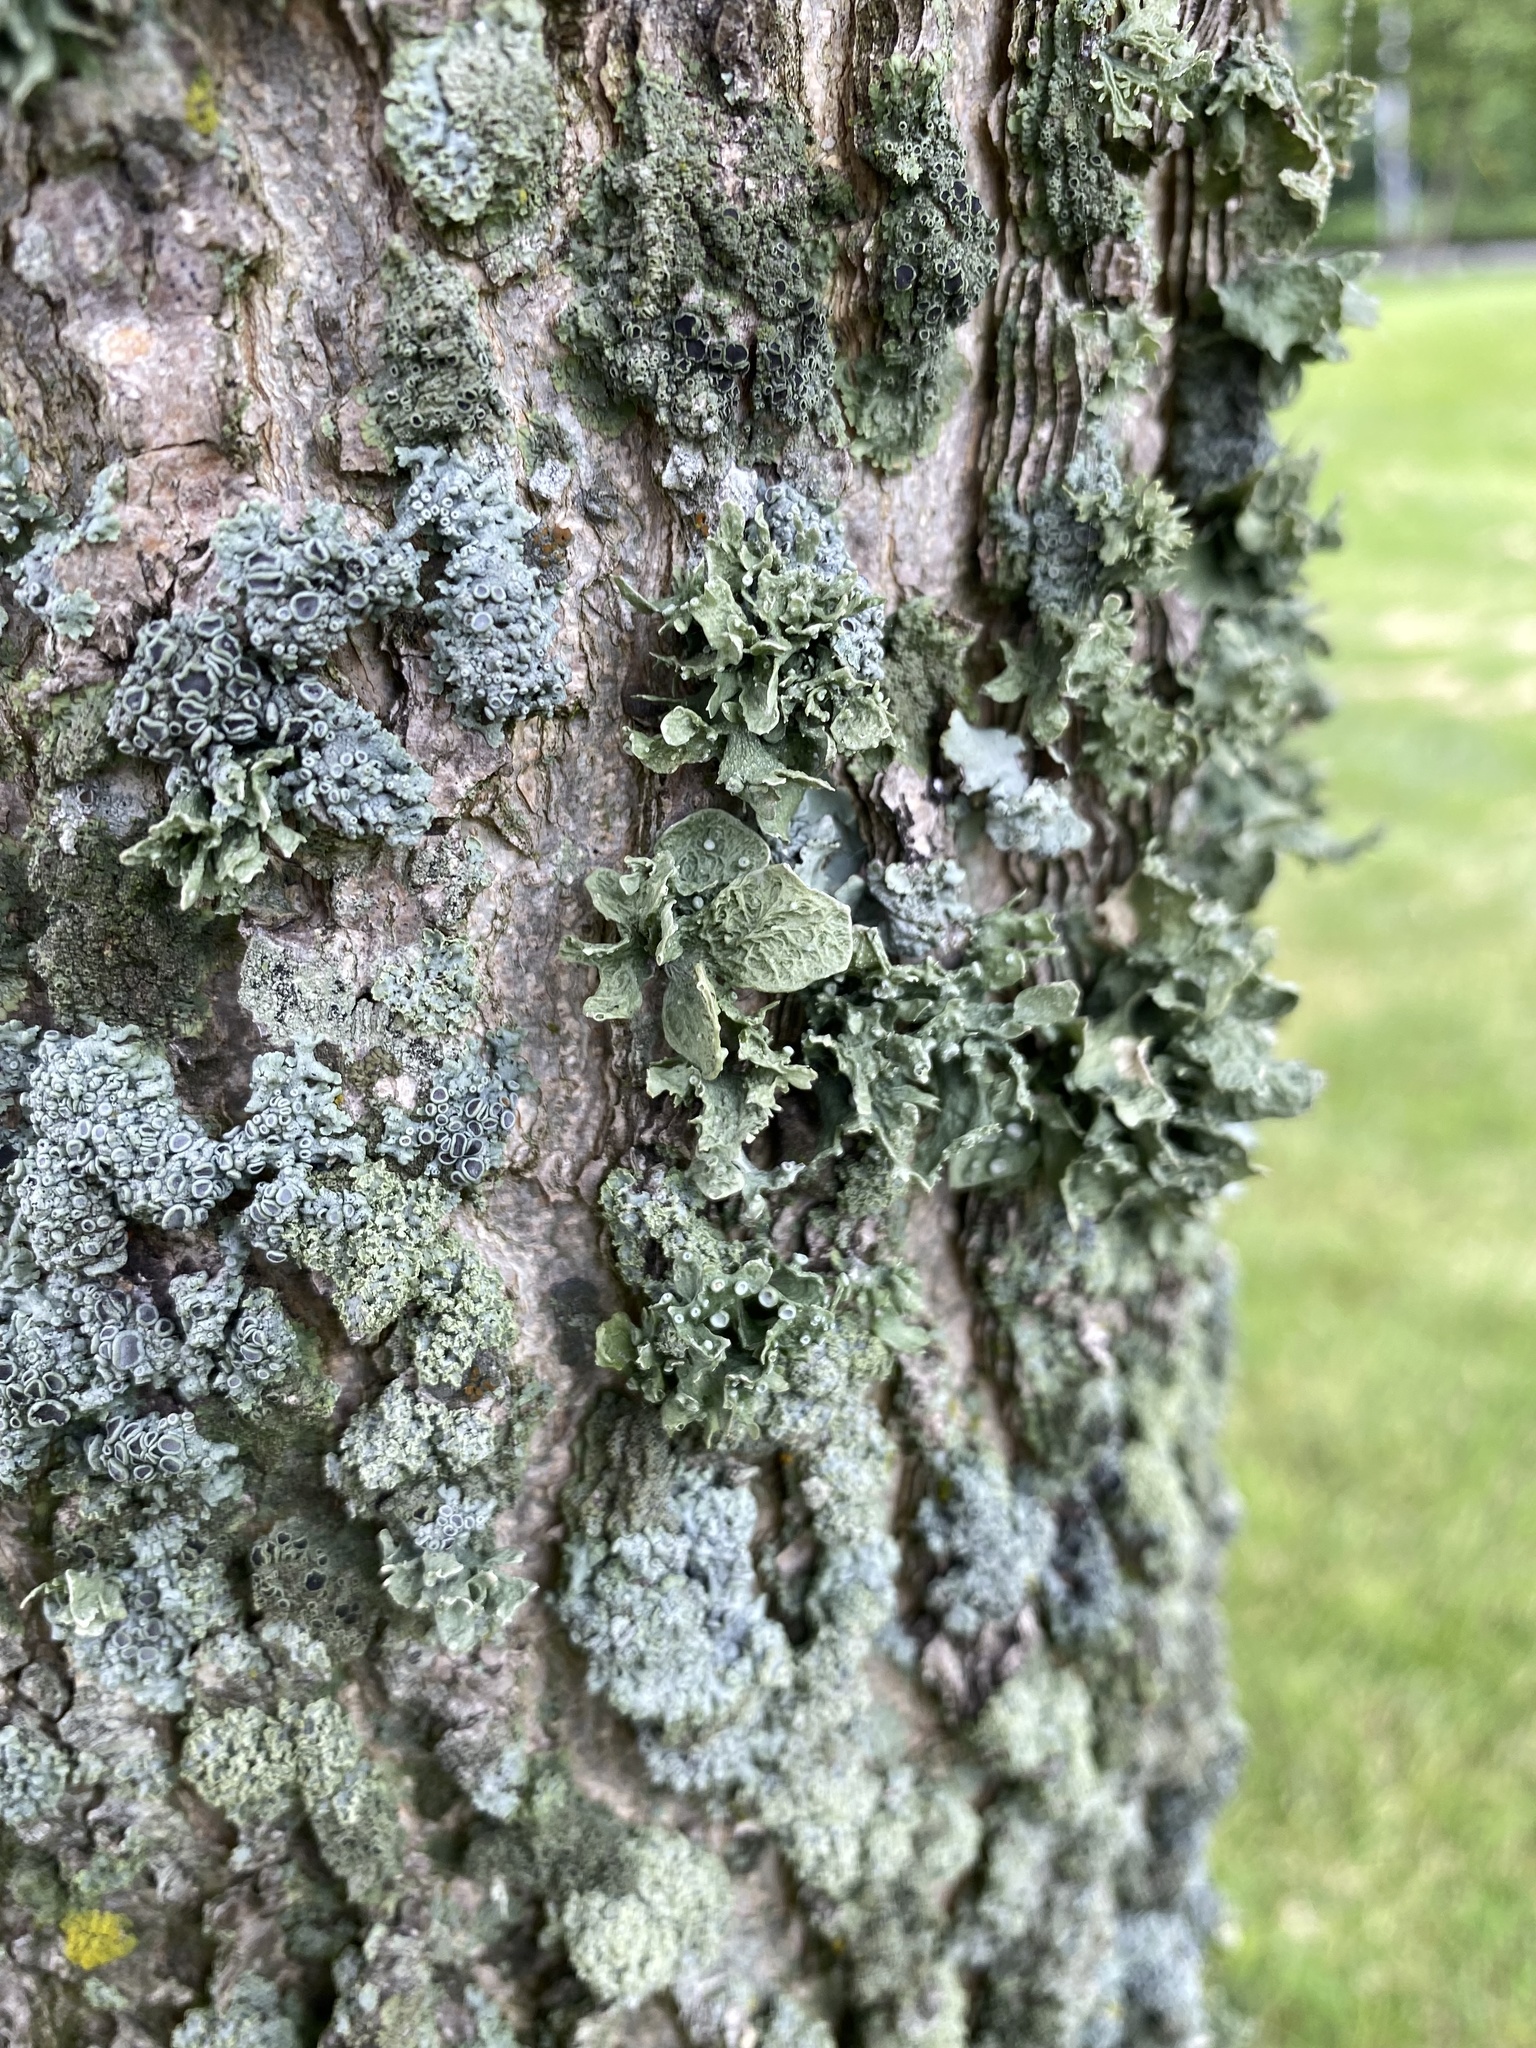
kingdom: Fungi
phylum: Ascomycota
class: Lecanoromycetes
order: Lecanorales
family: Ramalinaceae
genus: Ramalina
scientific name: Ramalina complanata
